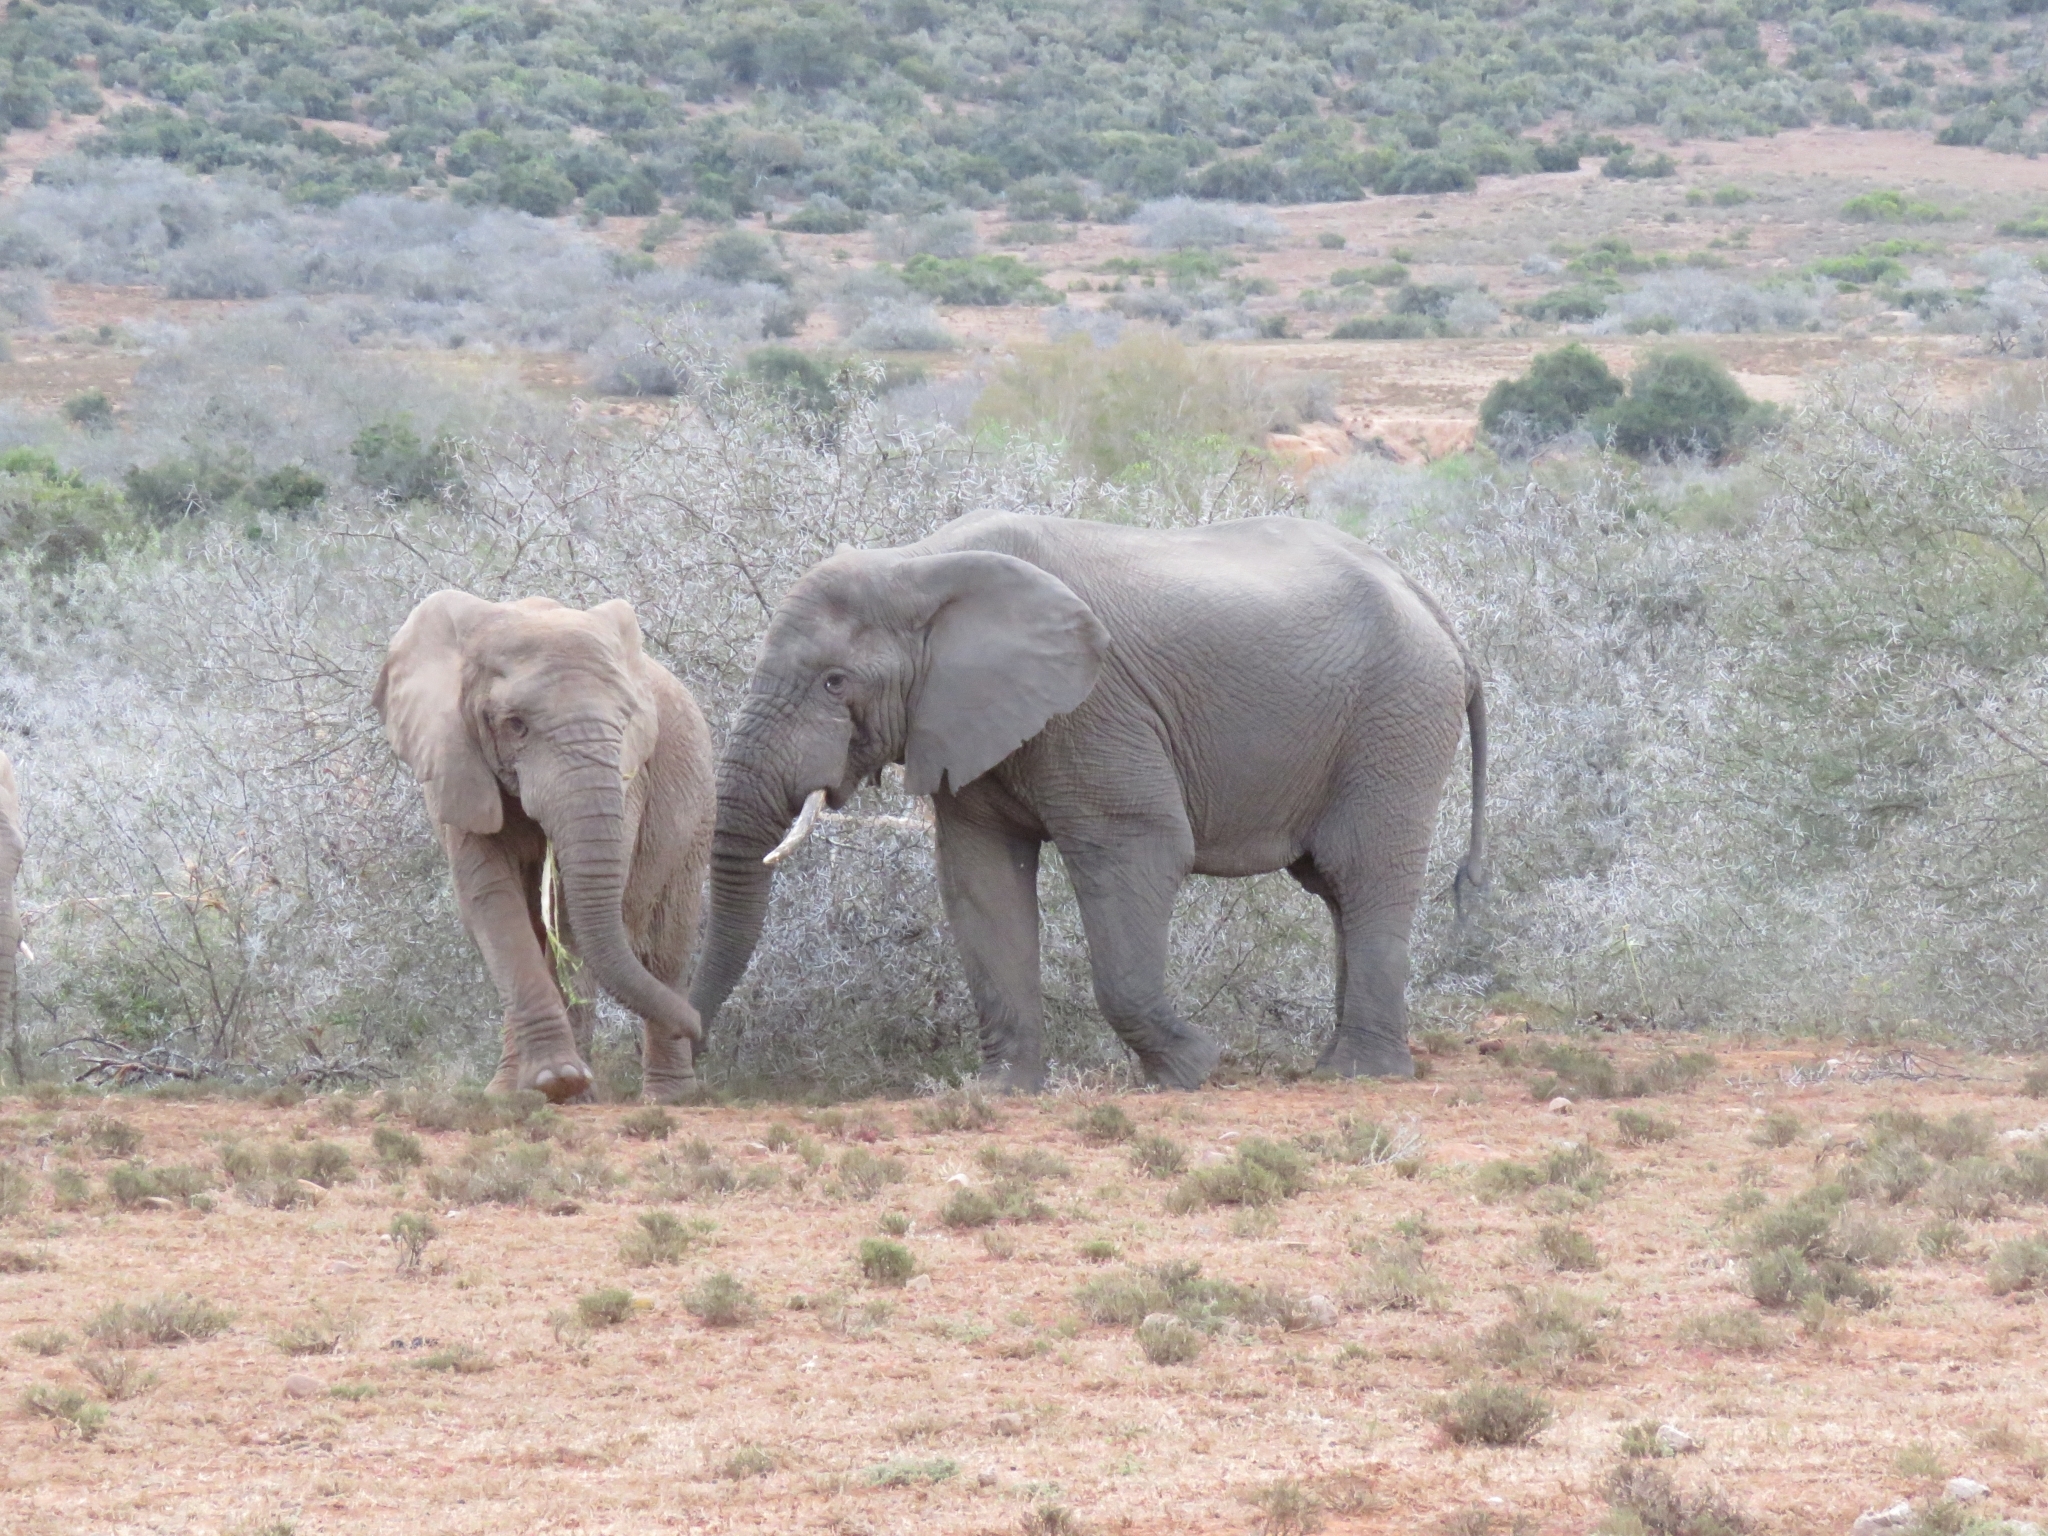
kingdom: Animalia
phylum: Chordata
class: Mammalia
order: Proboscidea
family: Elephantidae
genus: Loxodonta
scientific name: Loxodonta africana
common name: African elephant
